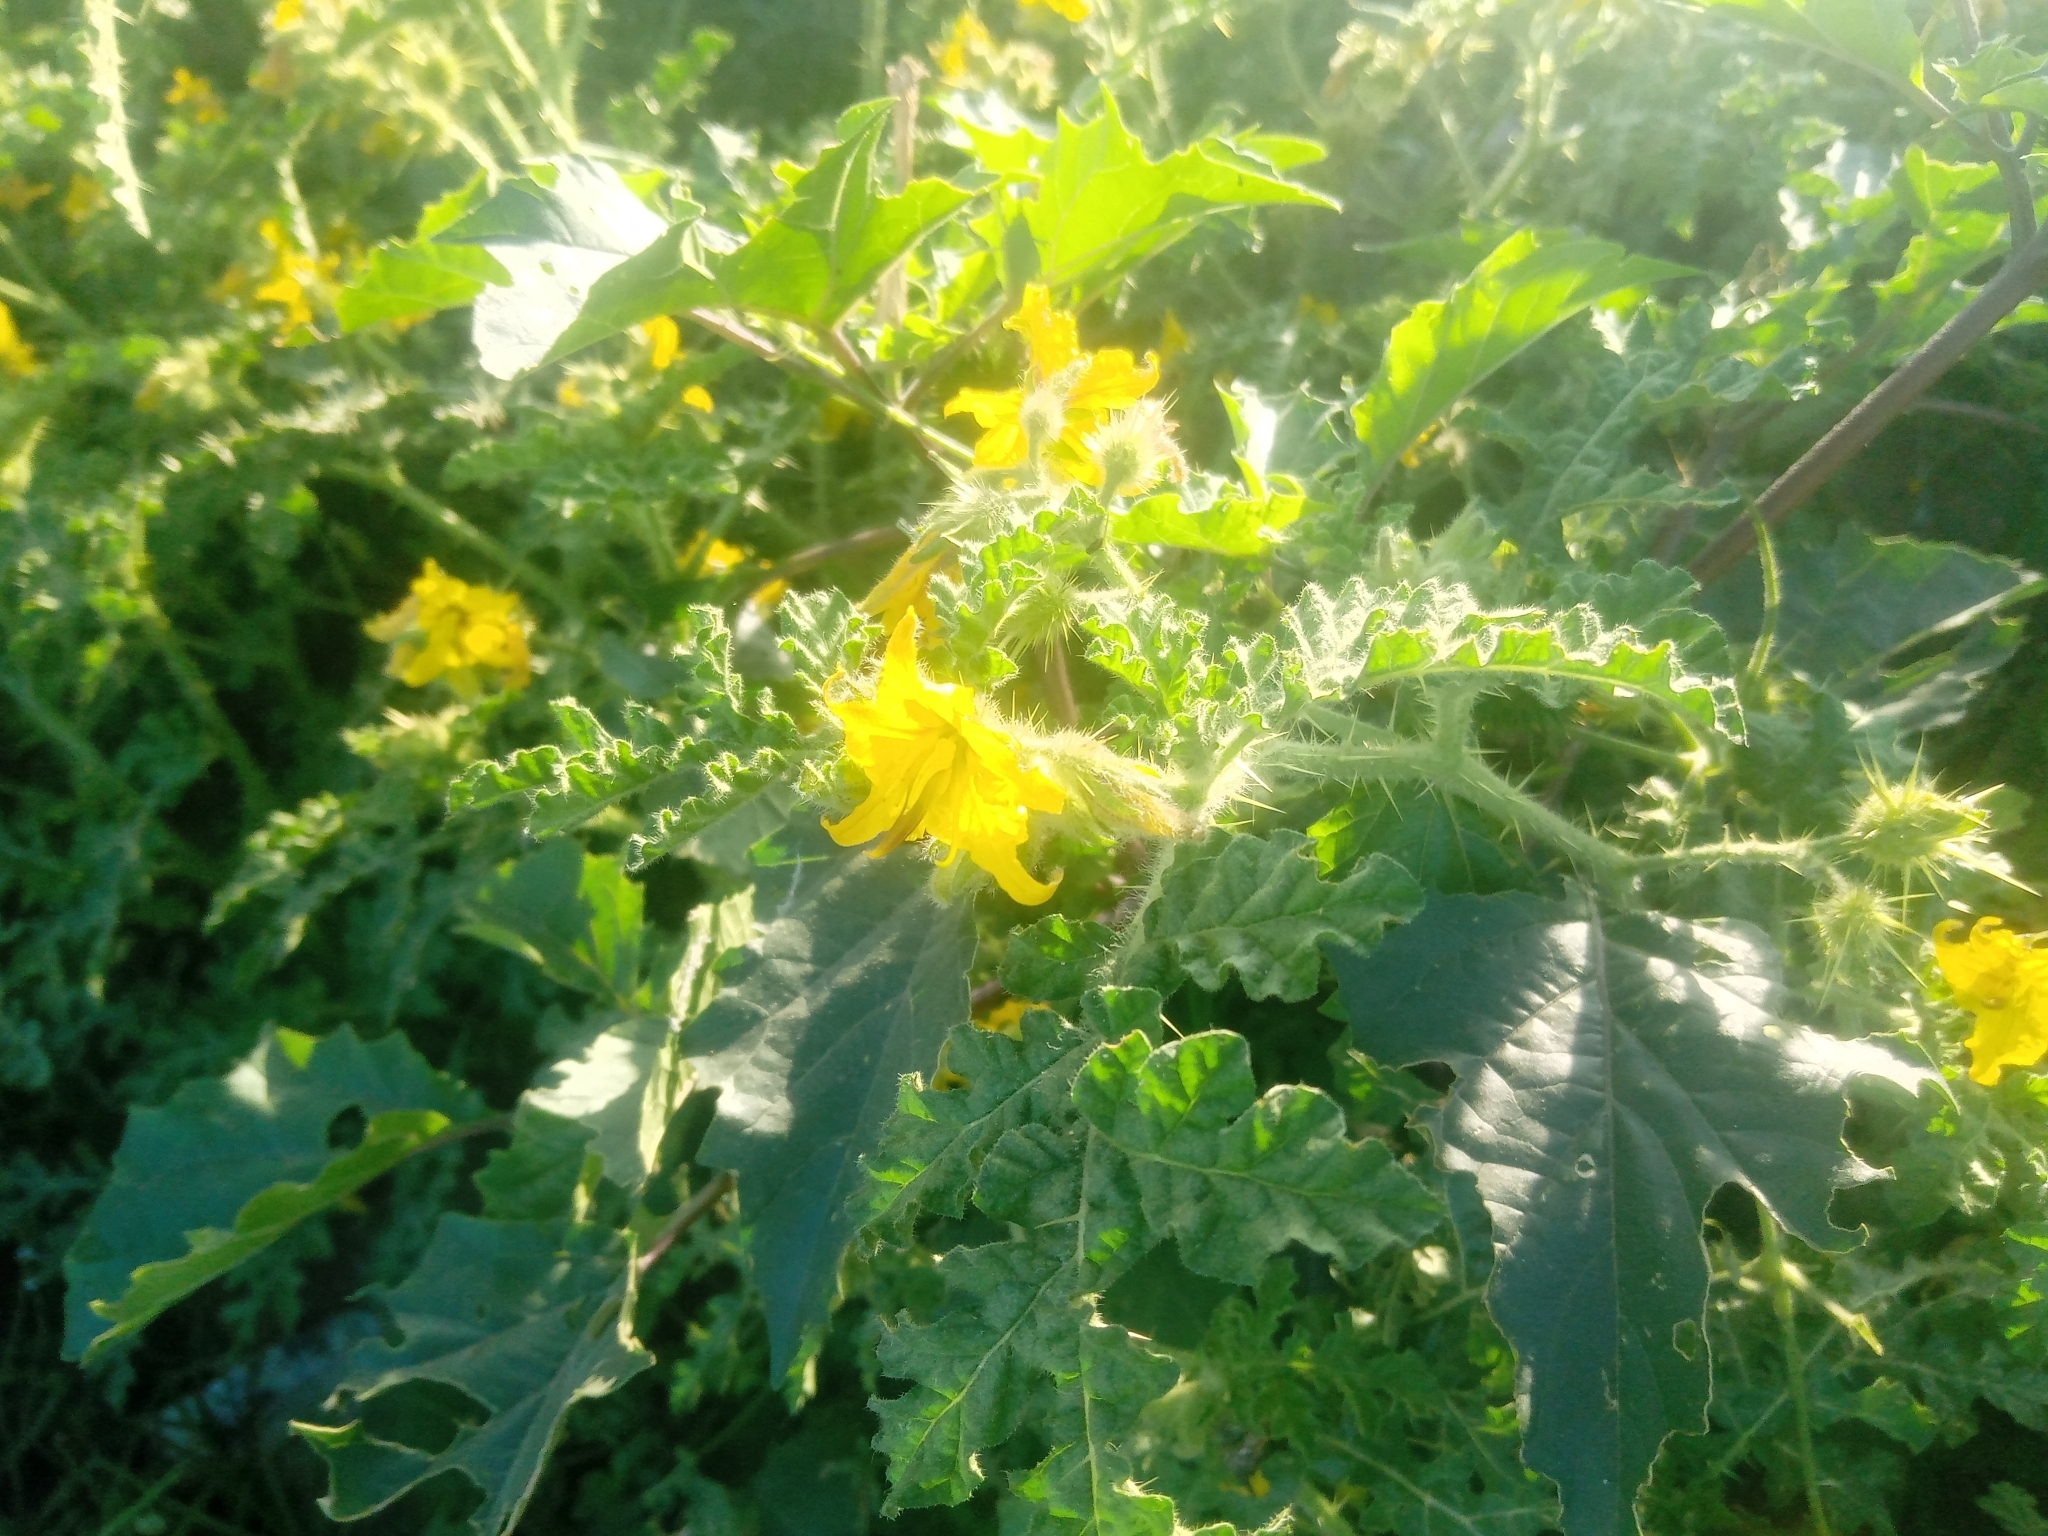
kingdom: Plantae
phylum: Tracheophyta
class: Magnoliopsida
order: Solanales
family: Solanaceae
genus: Solanum
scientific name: Solanum angustifolium
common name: Buffalobur nightshade
